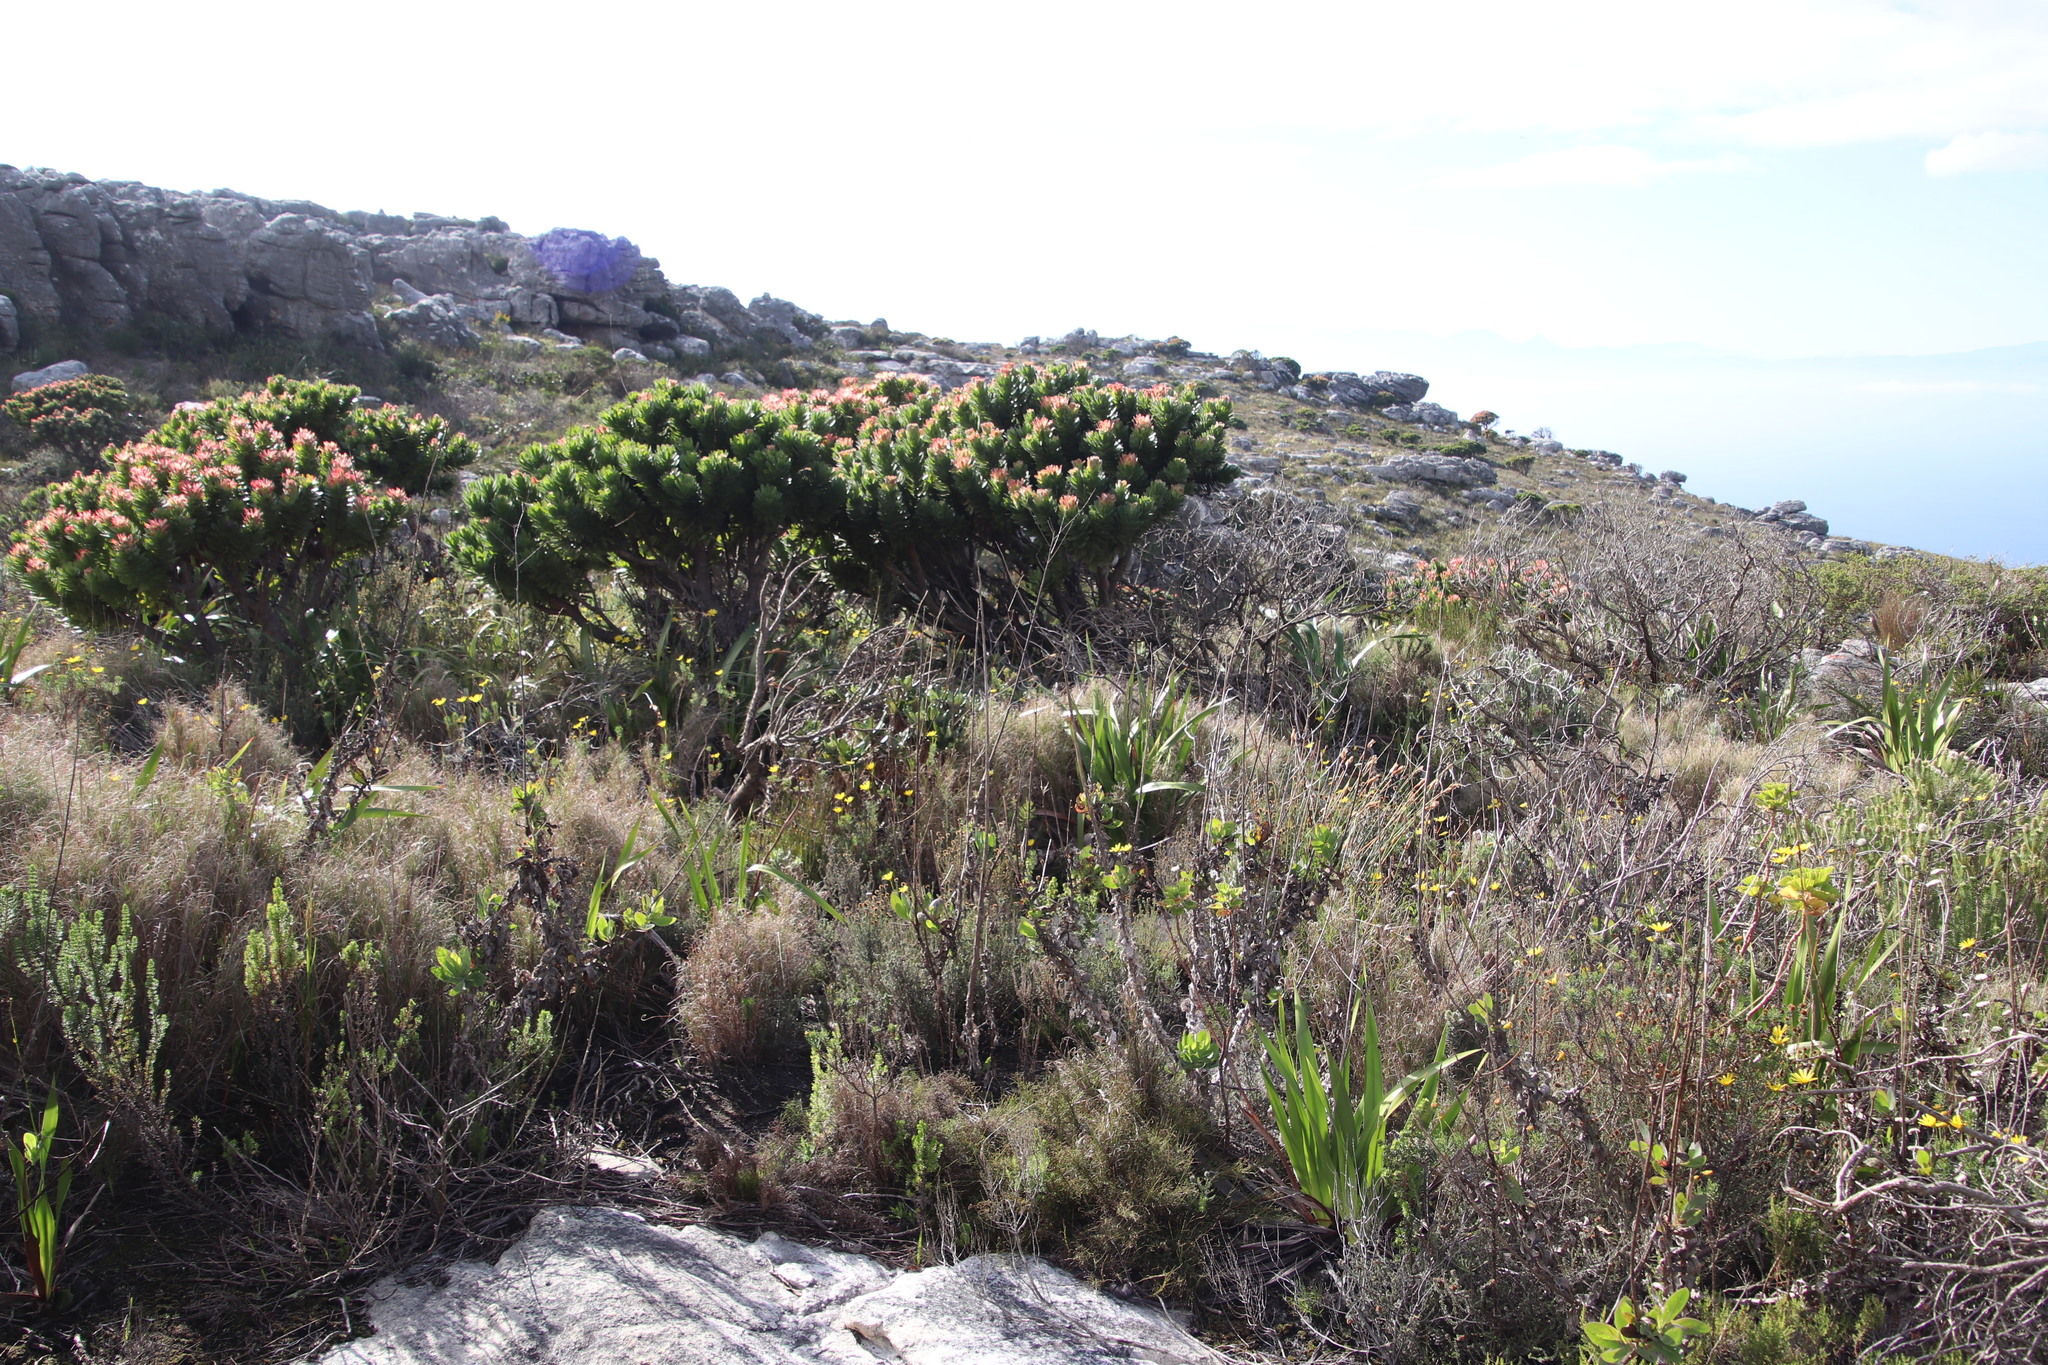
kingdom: Plantae
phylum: Tracheophyta
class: Magnoliopsida
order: Proteales
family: Proteaceae
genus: Mimetes
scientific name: Mimetes fimbriifolius
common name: Fringed bottlebrush
